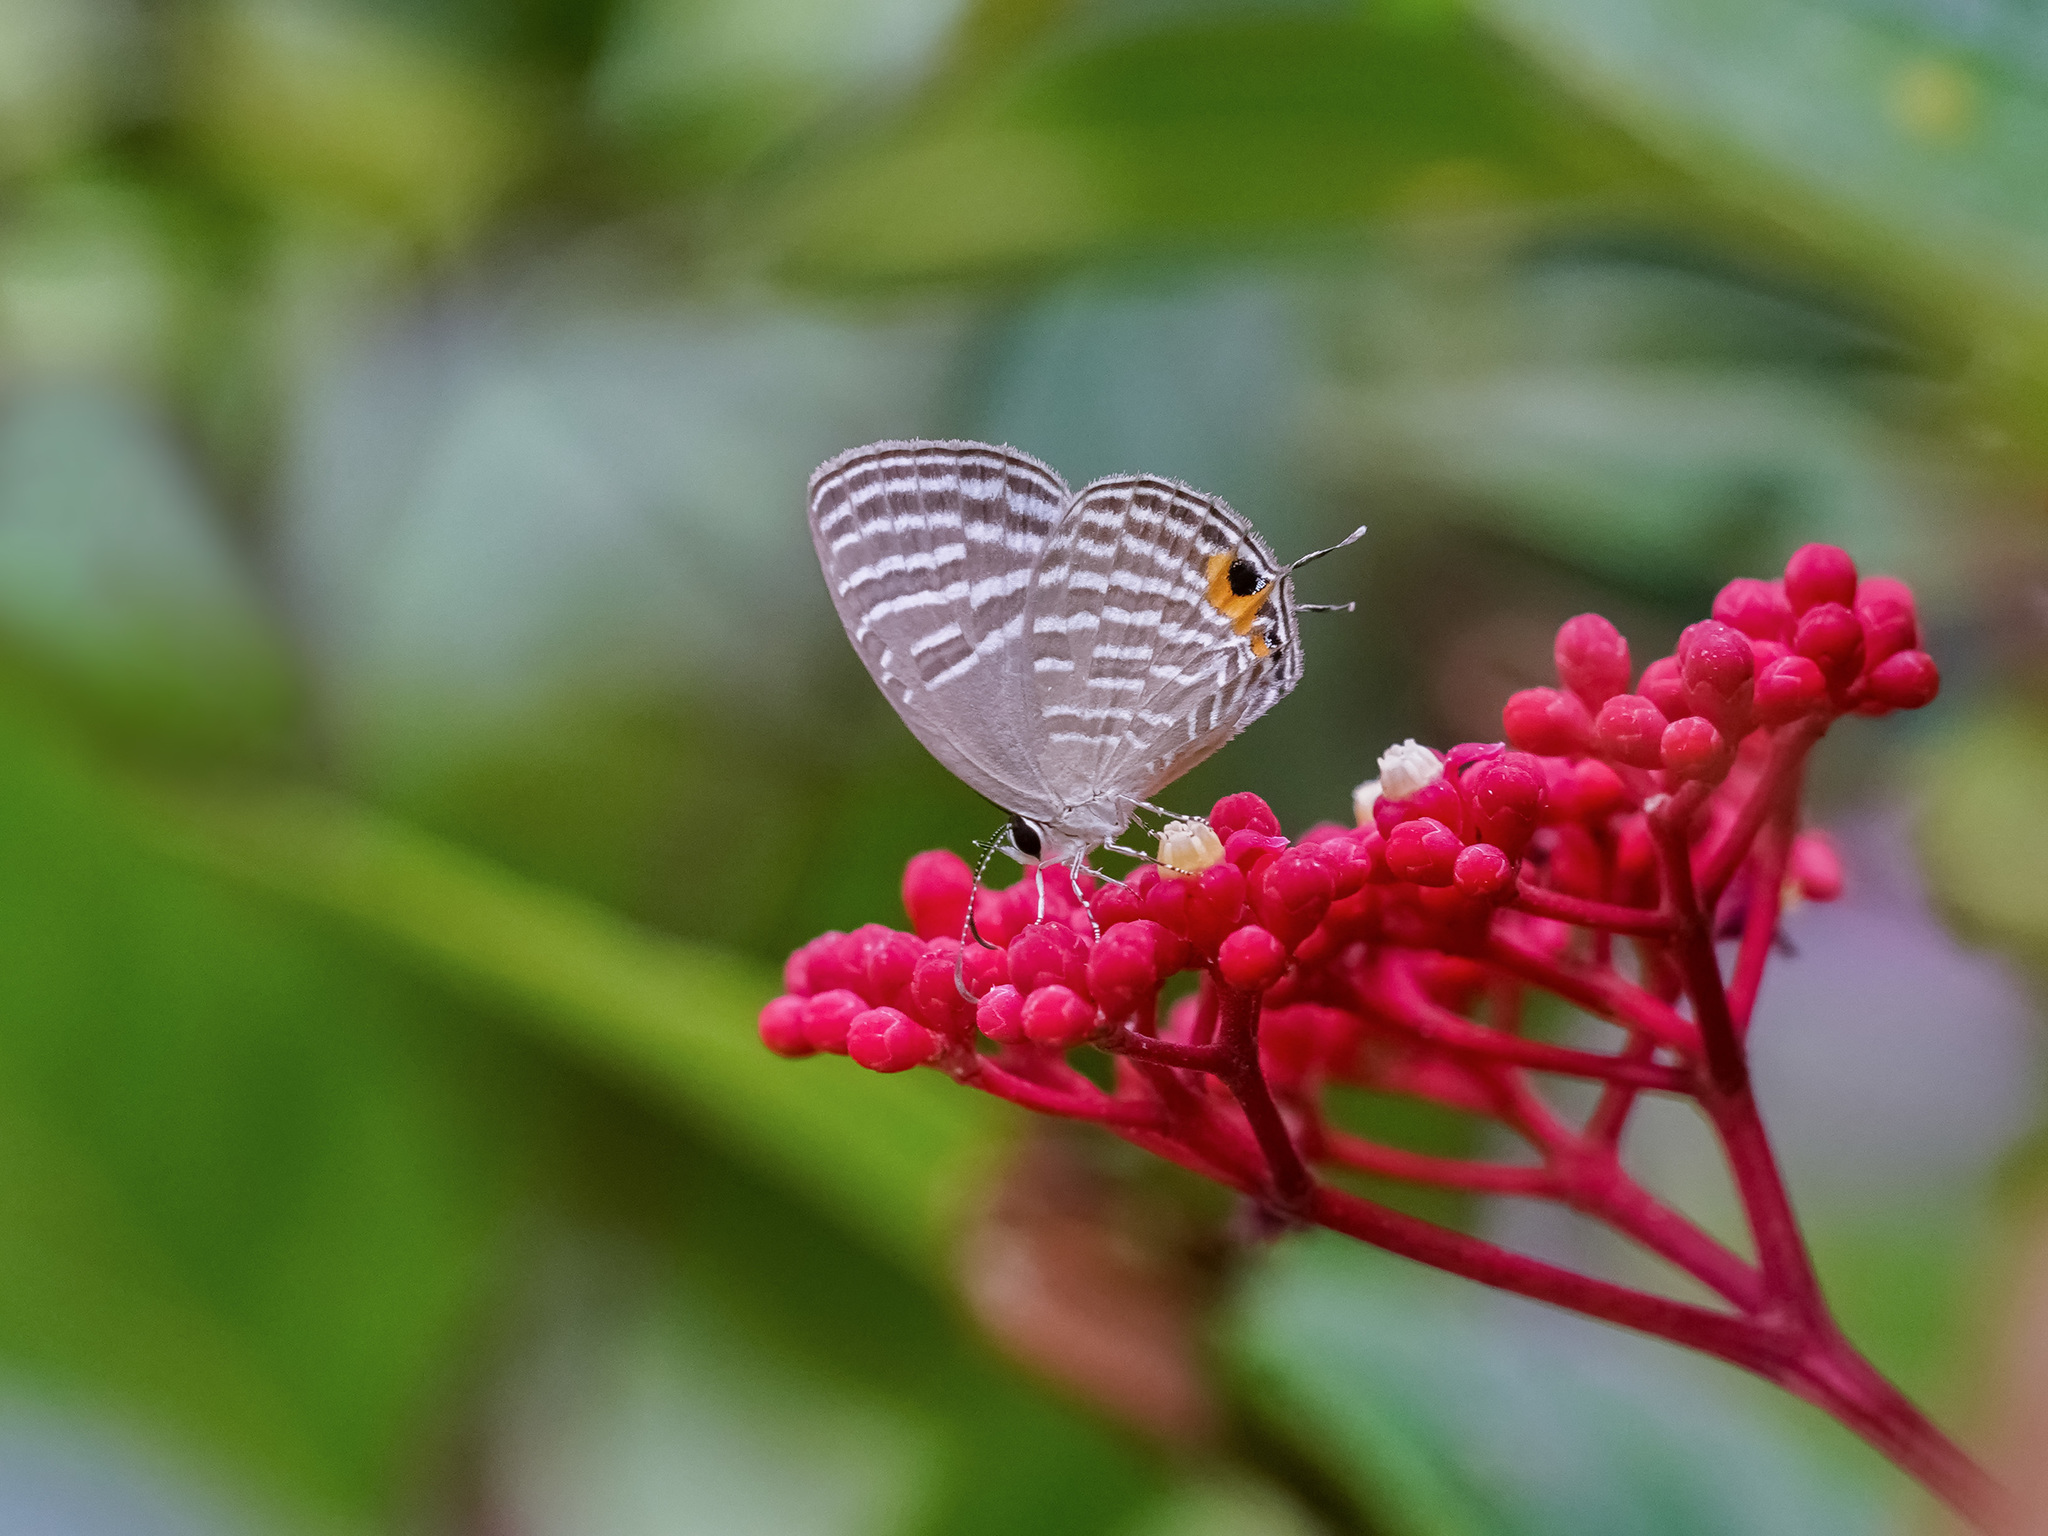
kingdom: Animalia
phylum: Arthropoda
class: Insecta
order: Lepidoptera
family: Lycaenidae
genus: Jamides
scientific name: Jamides celeno
